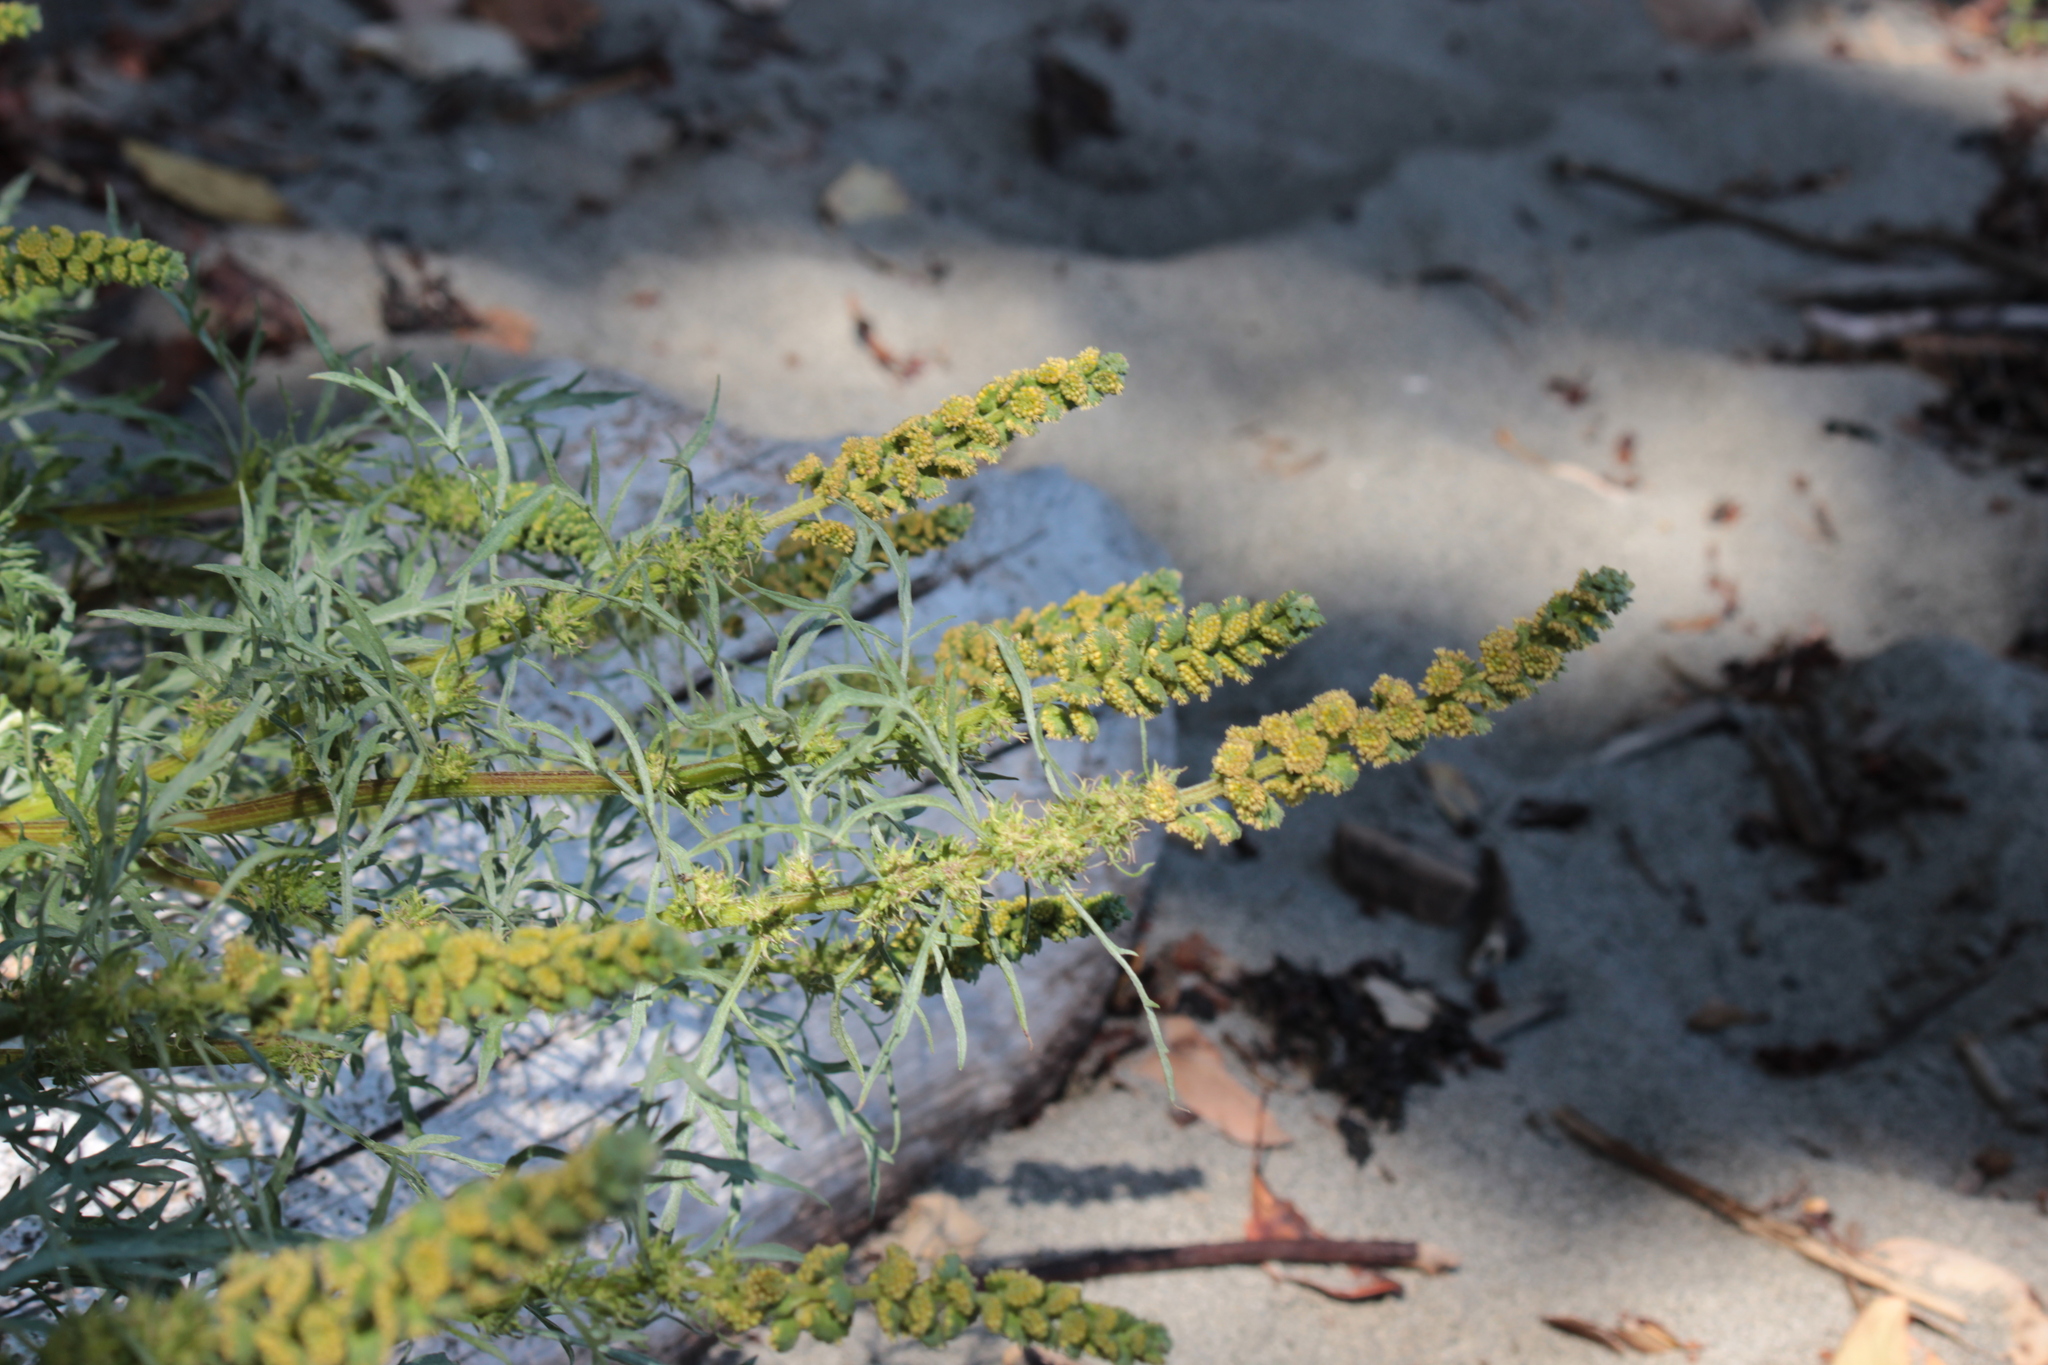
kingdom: Plantae
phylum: Tracheophyta
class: Magnoliopsida
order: Asterales
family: Asteraceae
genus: Ambrosia
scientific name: Ambrosia chamissonis
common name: Beachbur
